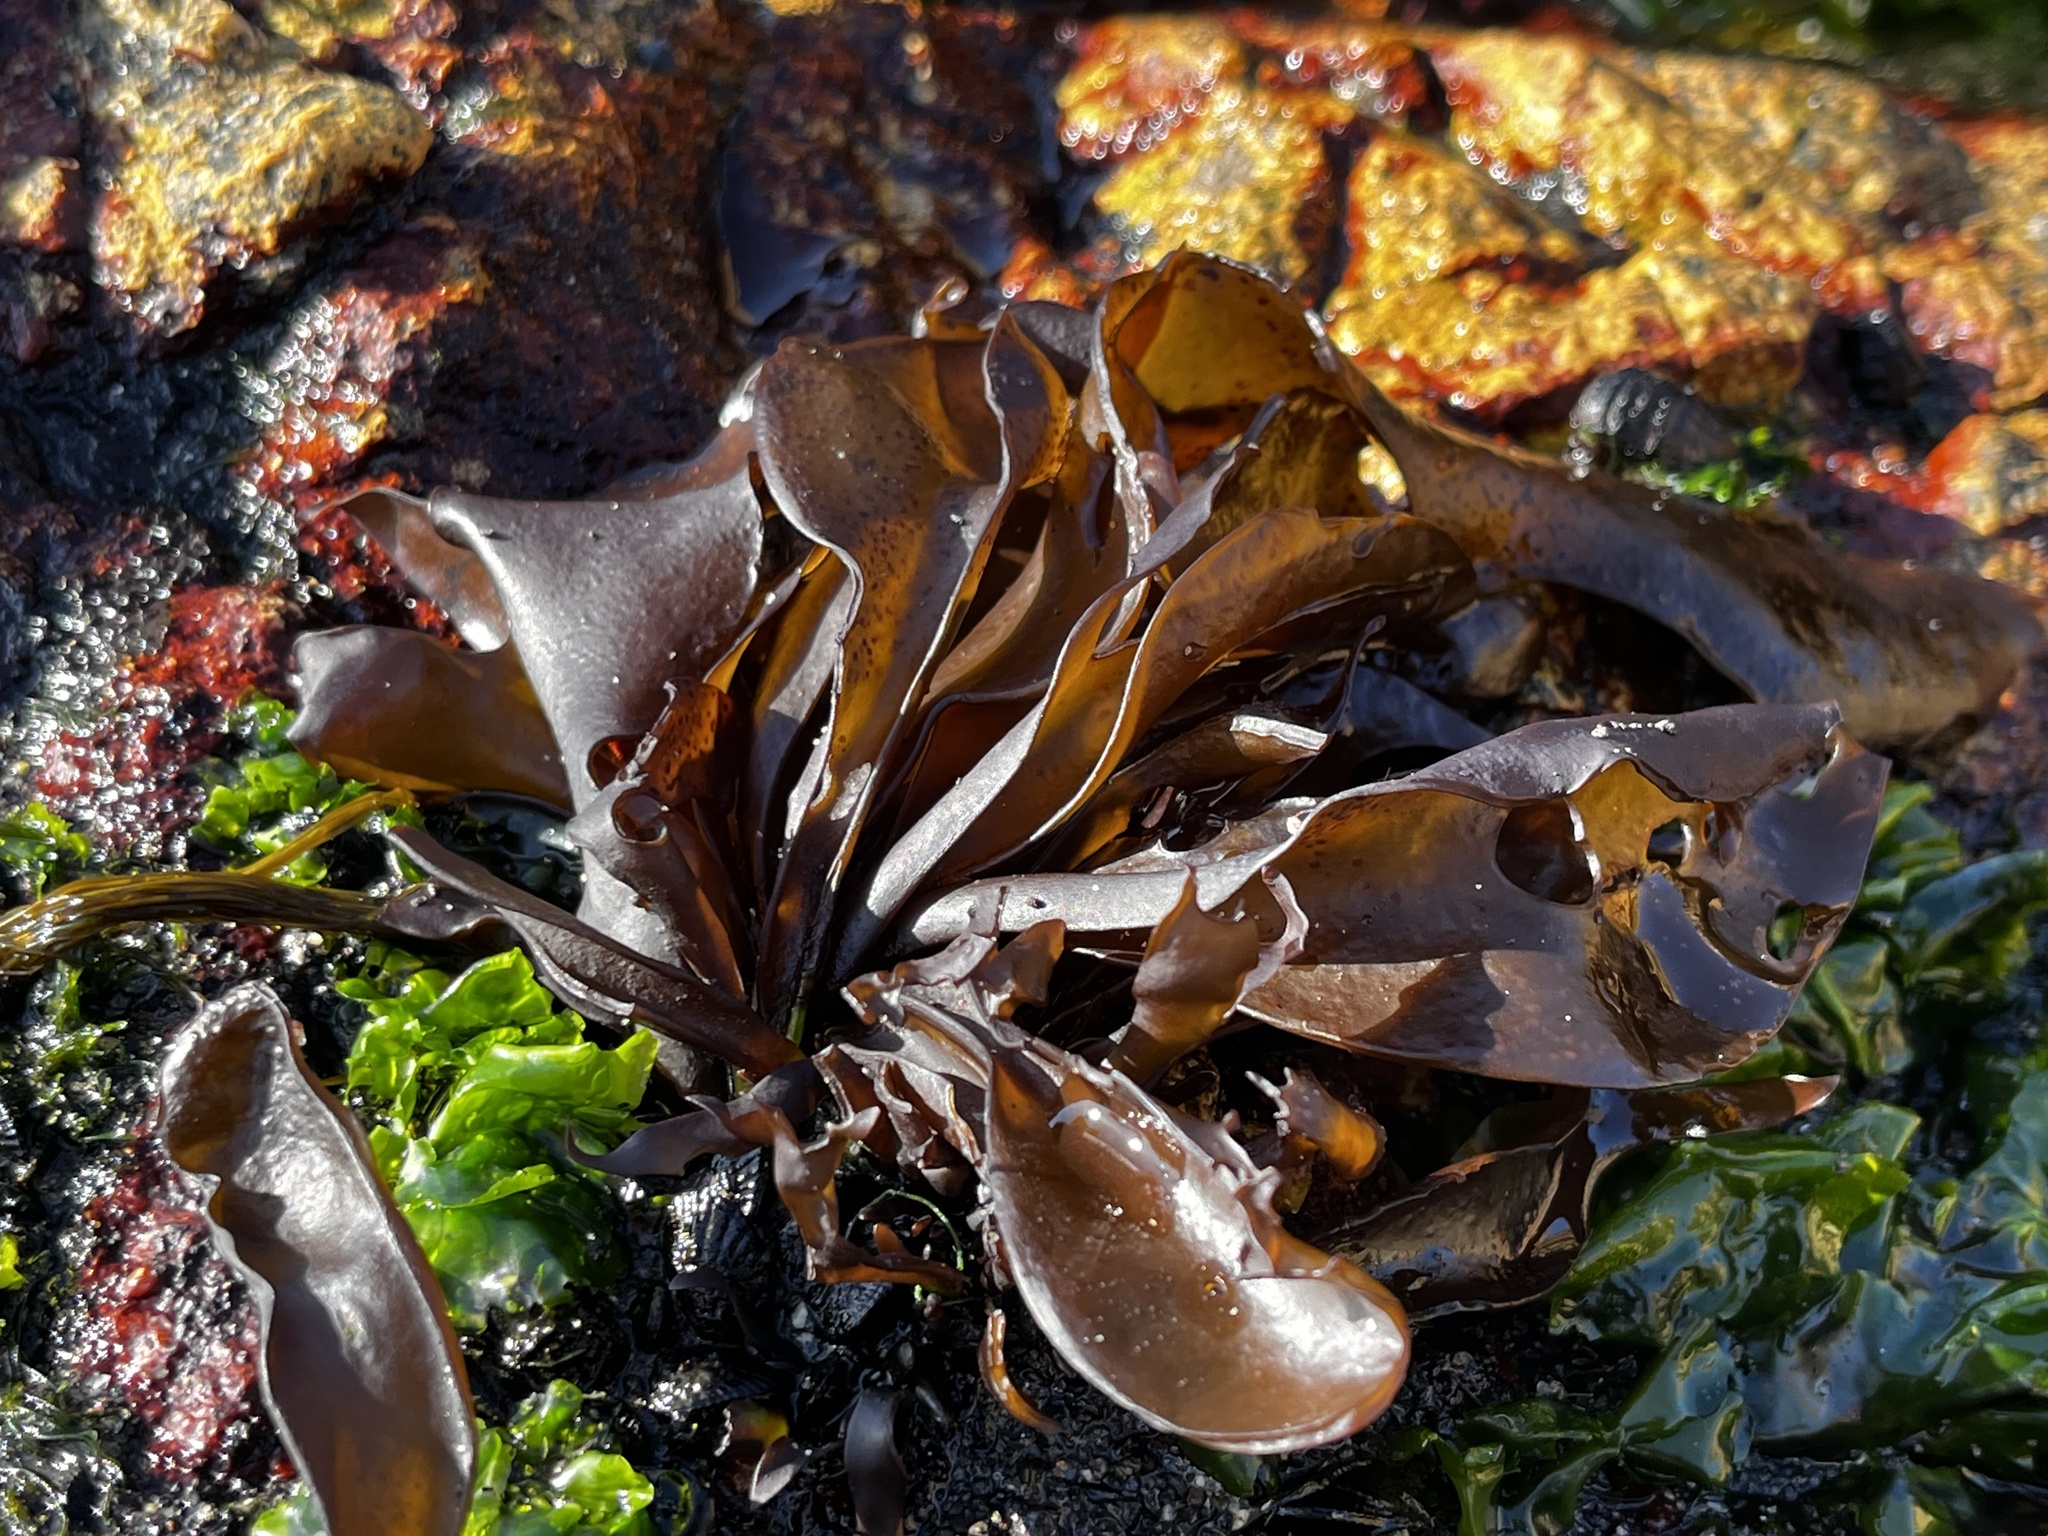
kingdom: Plantae
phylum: Rhodophyta
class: Florideophyceae
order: Gigartinales
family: Gigartinaceae
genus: Mazzaella
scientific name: Mazzaella laminarioides
